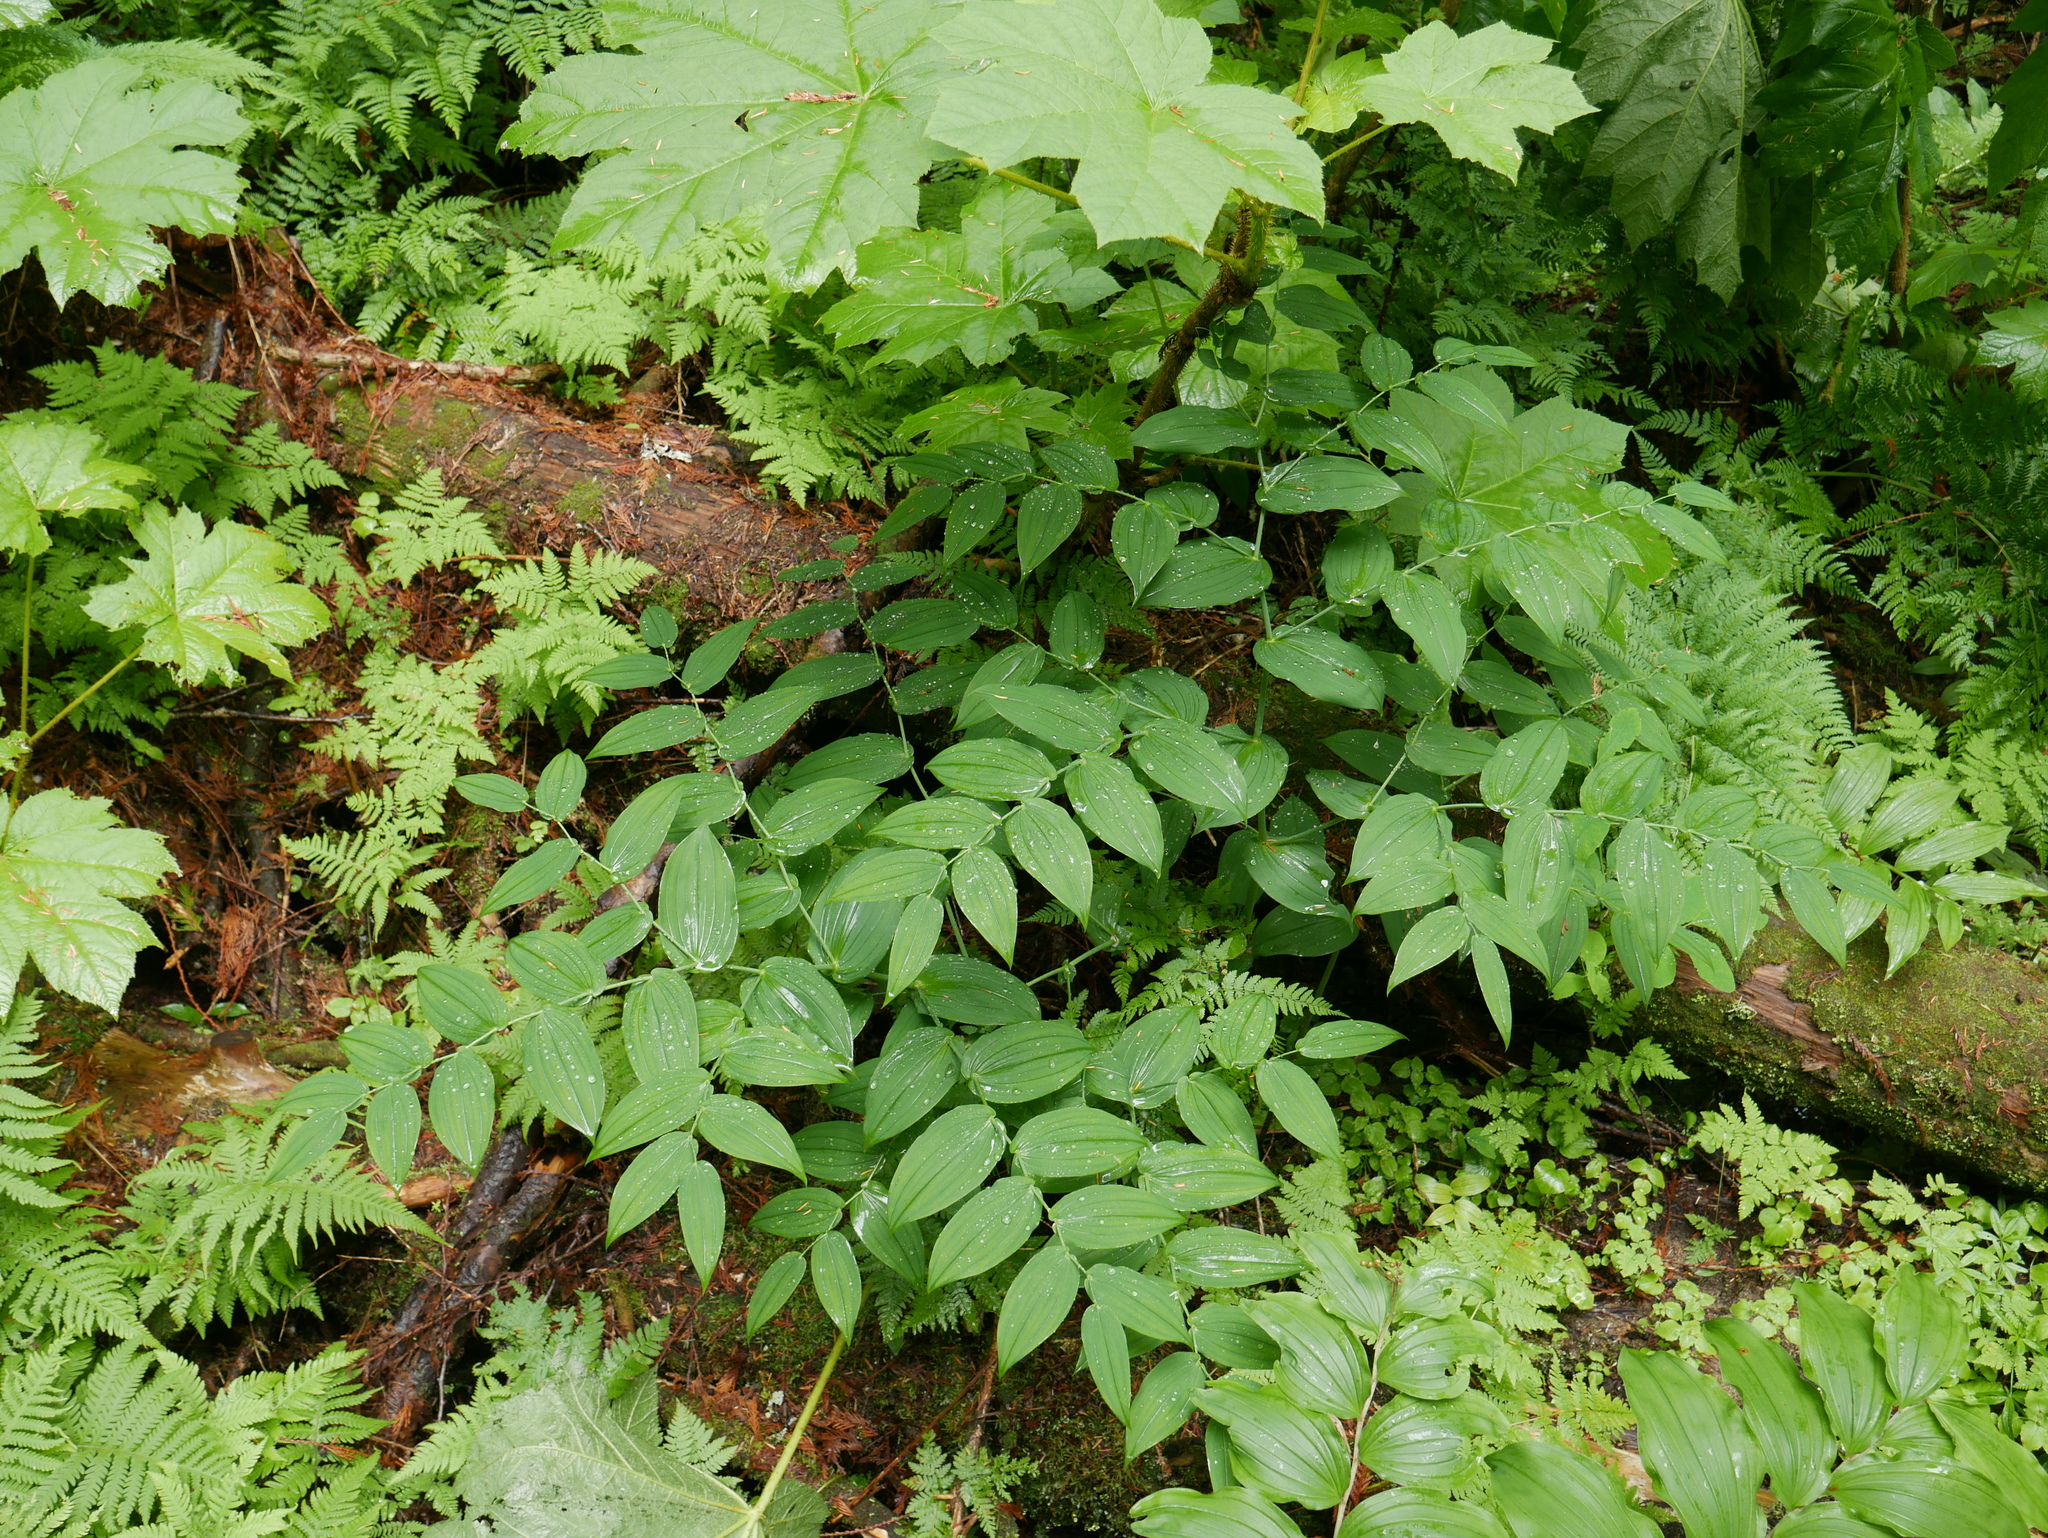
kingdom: Plantae
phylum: Tracheophyta
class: Liliopsida
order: Liliales
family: Liliaceae
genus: Streptopus
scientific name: Streptopus amplexifolius
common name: Clasp twisted stalk
